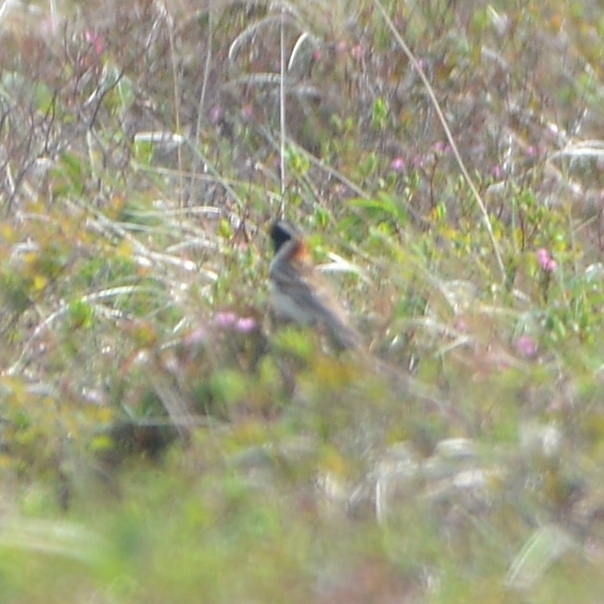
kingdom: Animalia
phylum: Chordata
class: Aves
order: Passeriformes
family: Calcariidae
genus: Calcarius
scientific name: Calcarius lapponicus
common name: Lapland longspur
